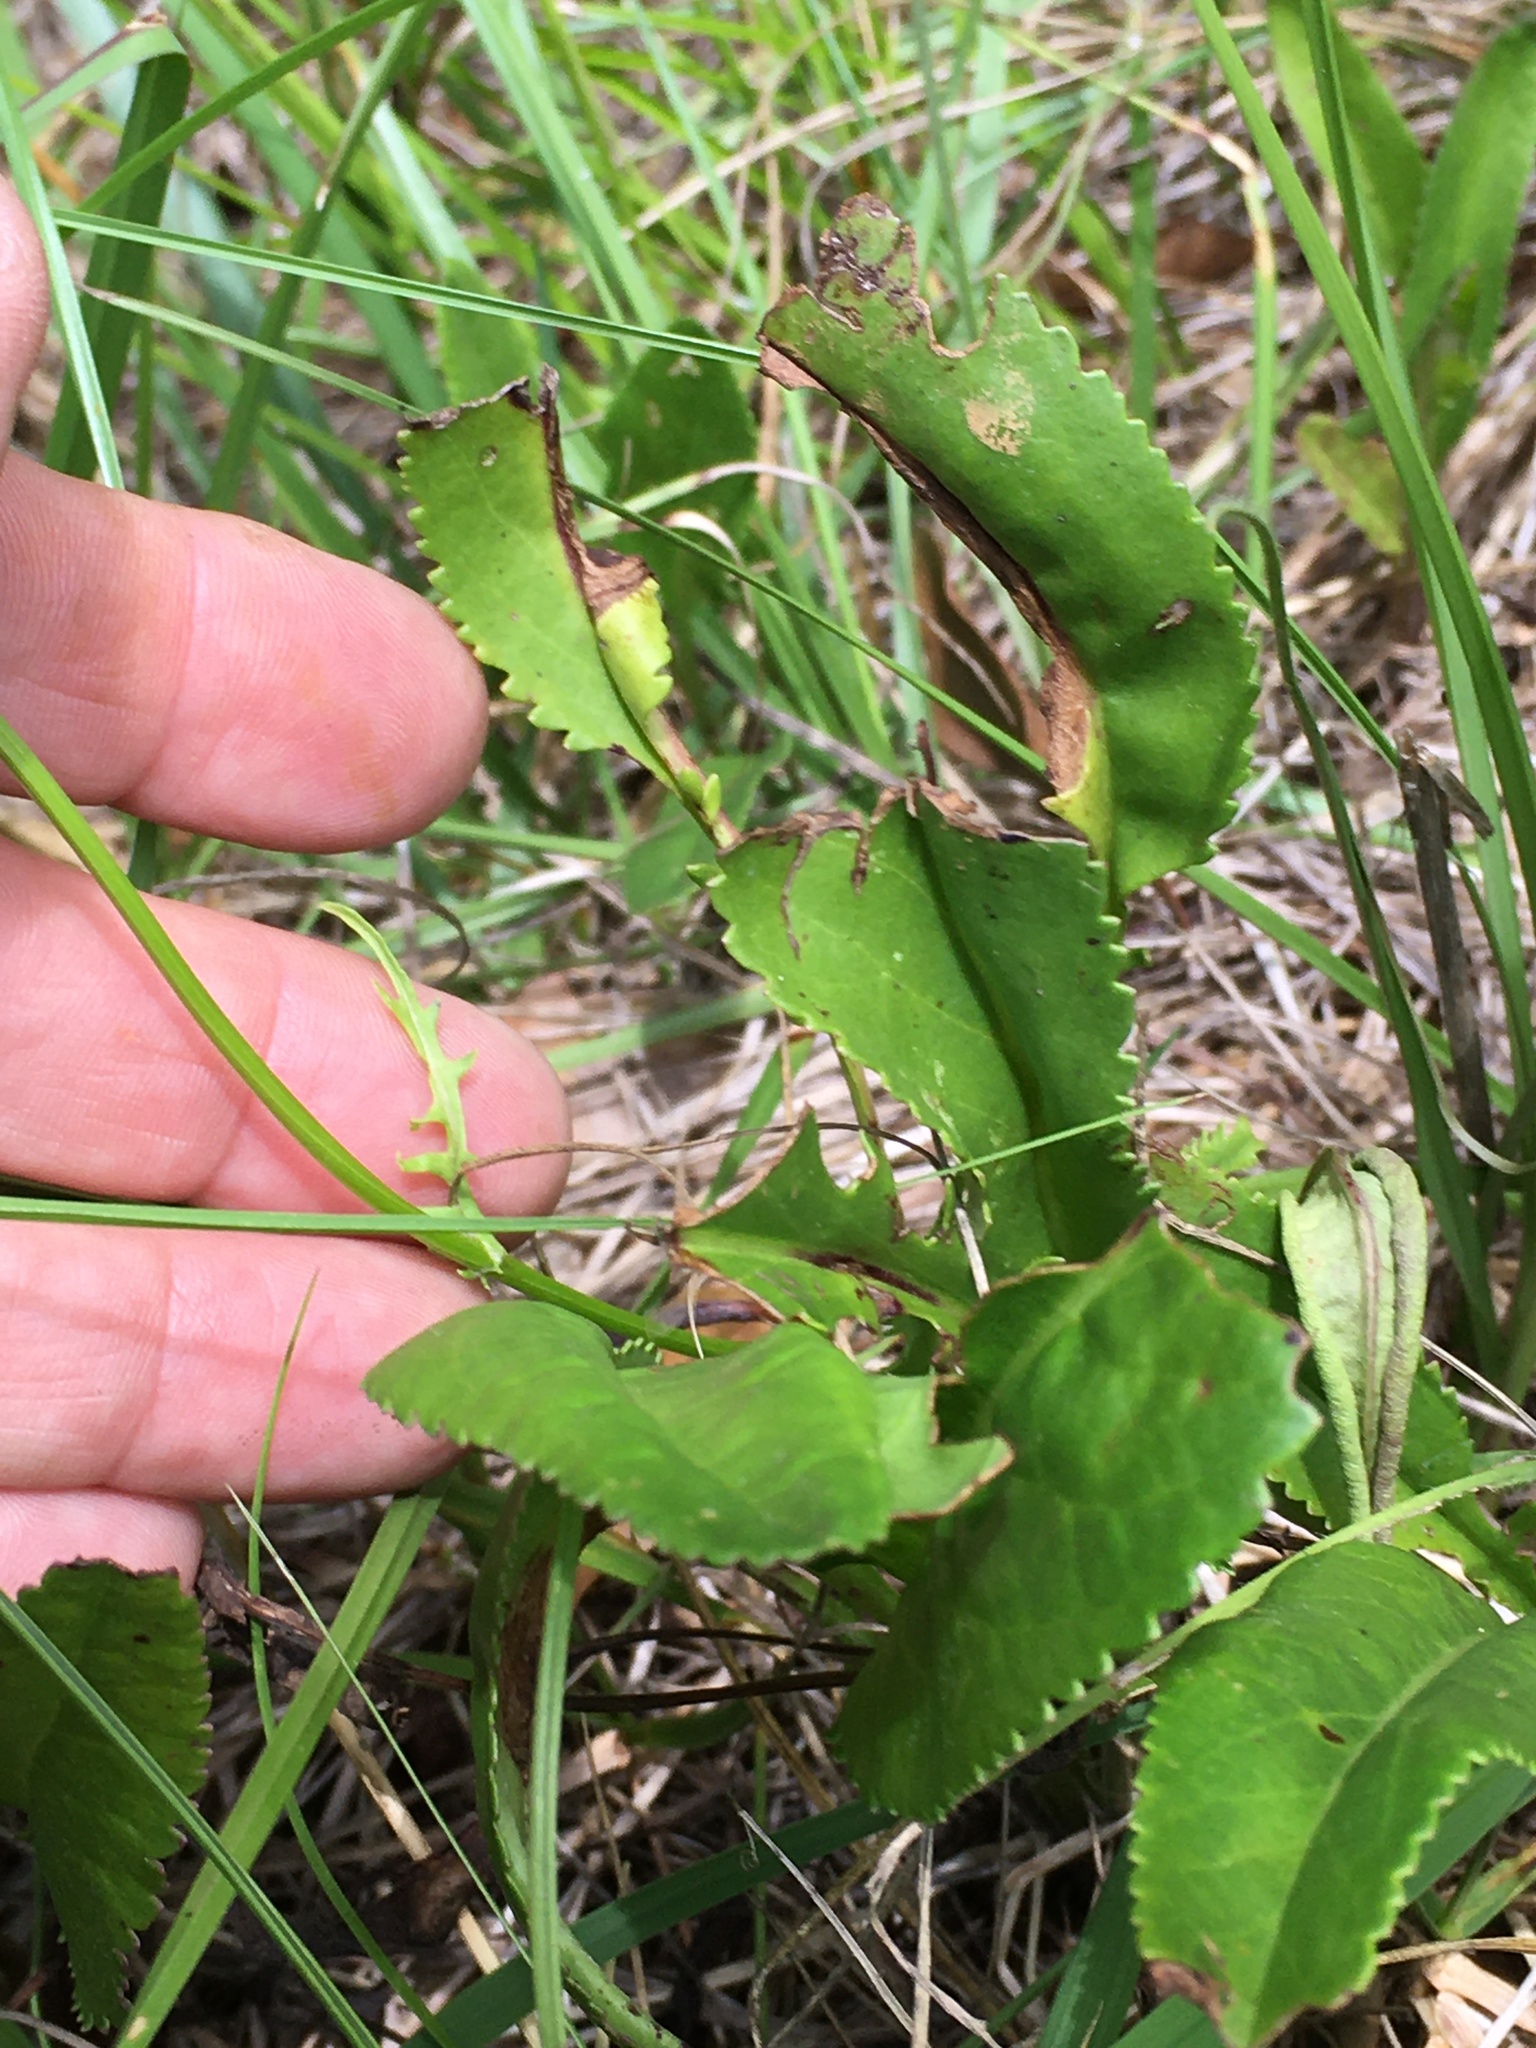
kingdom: Plantae
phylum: Tracheophyta
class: Magnoliopsida
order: Asterales
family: Asteraceae
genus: Packera
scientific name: Packera anonyma
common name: Small ragwort
